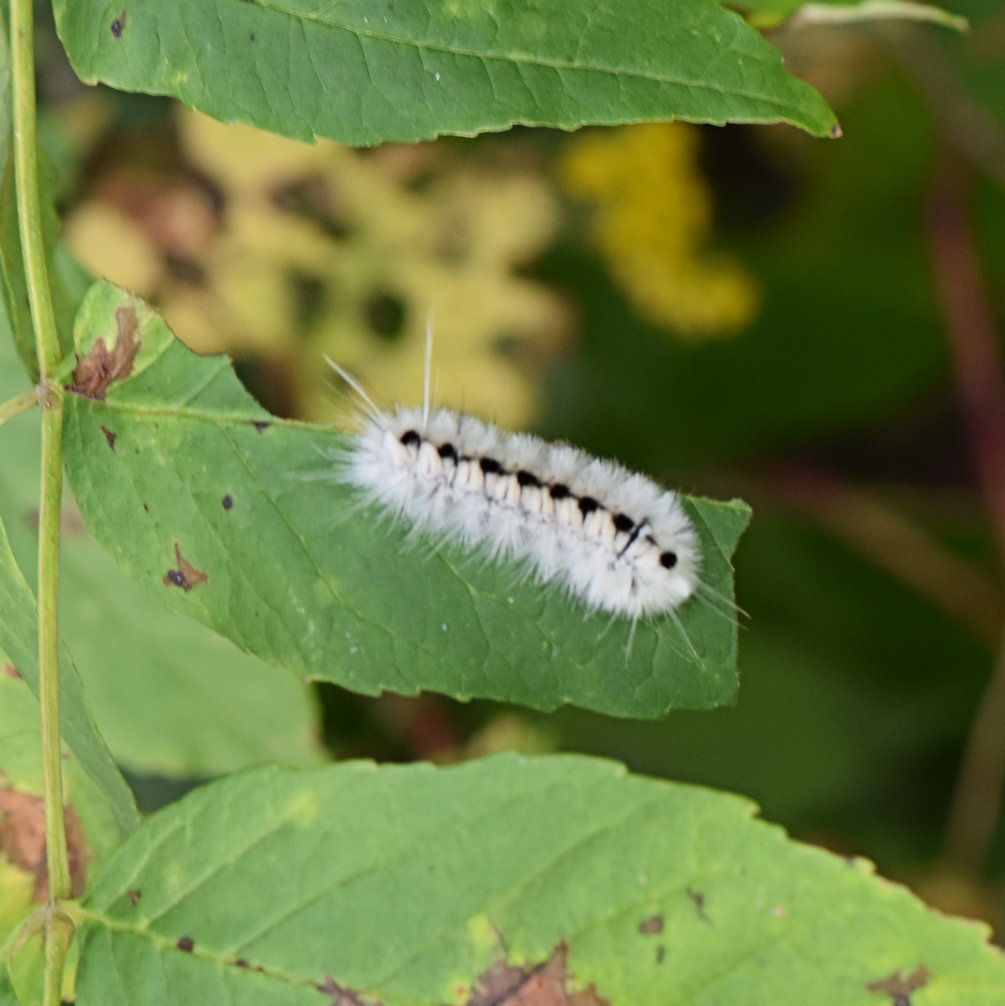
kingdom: Animalia
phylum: Arthropoda
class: Insecta
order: Lepidoptera
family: Erebidae
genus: Lophocampa
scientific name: Lophocampa caryae
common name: Hickory tussock moth
